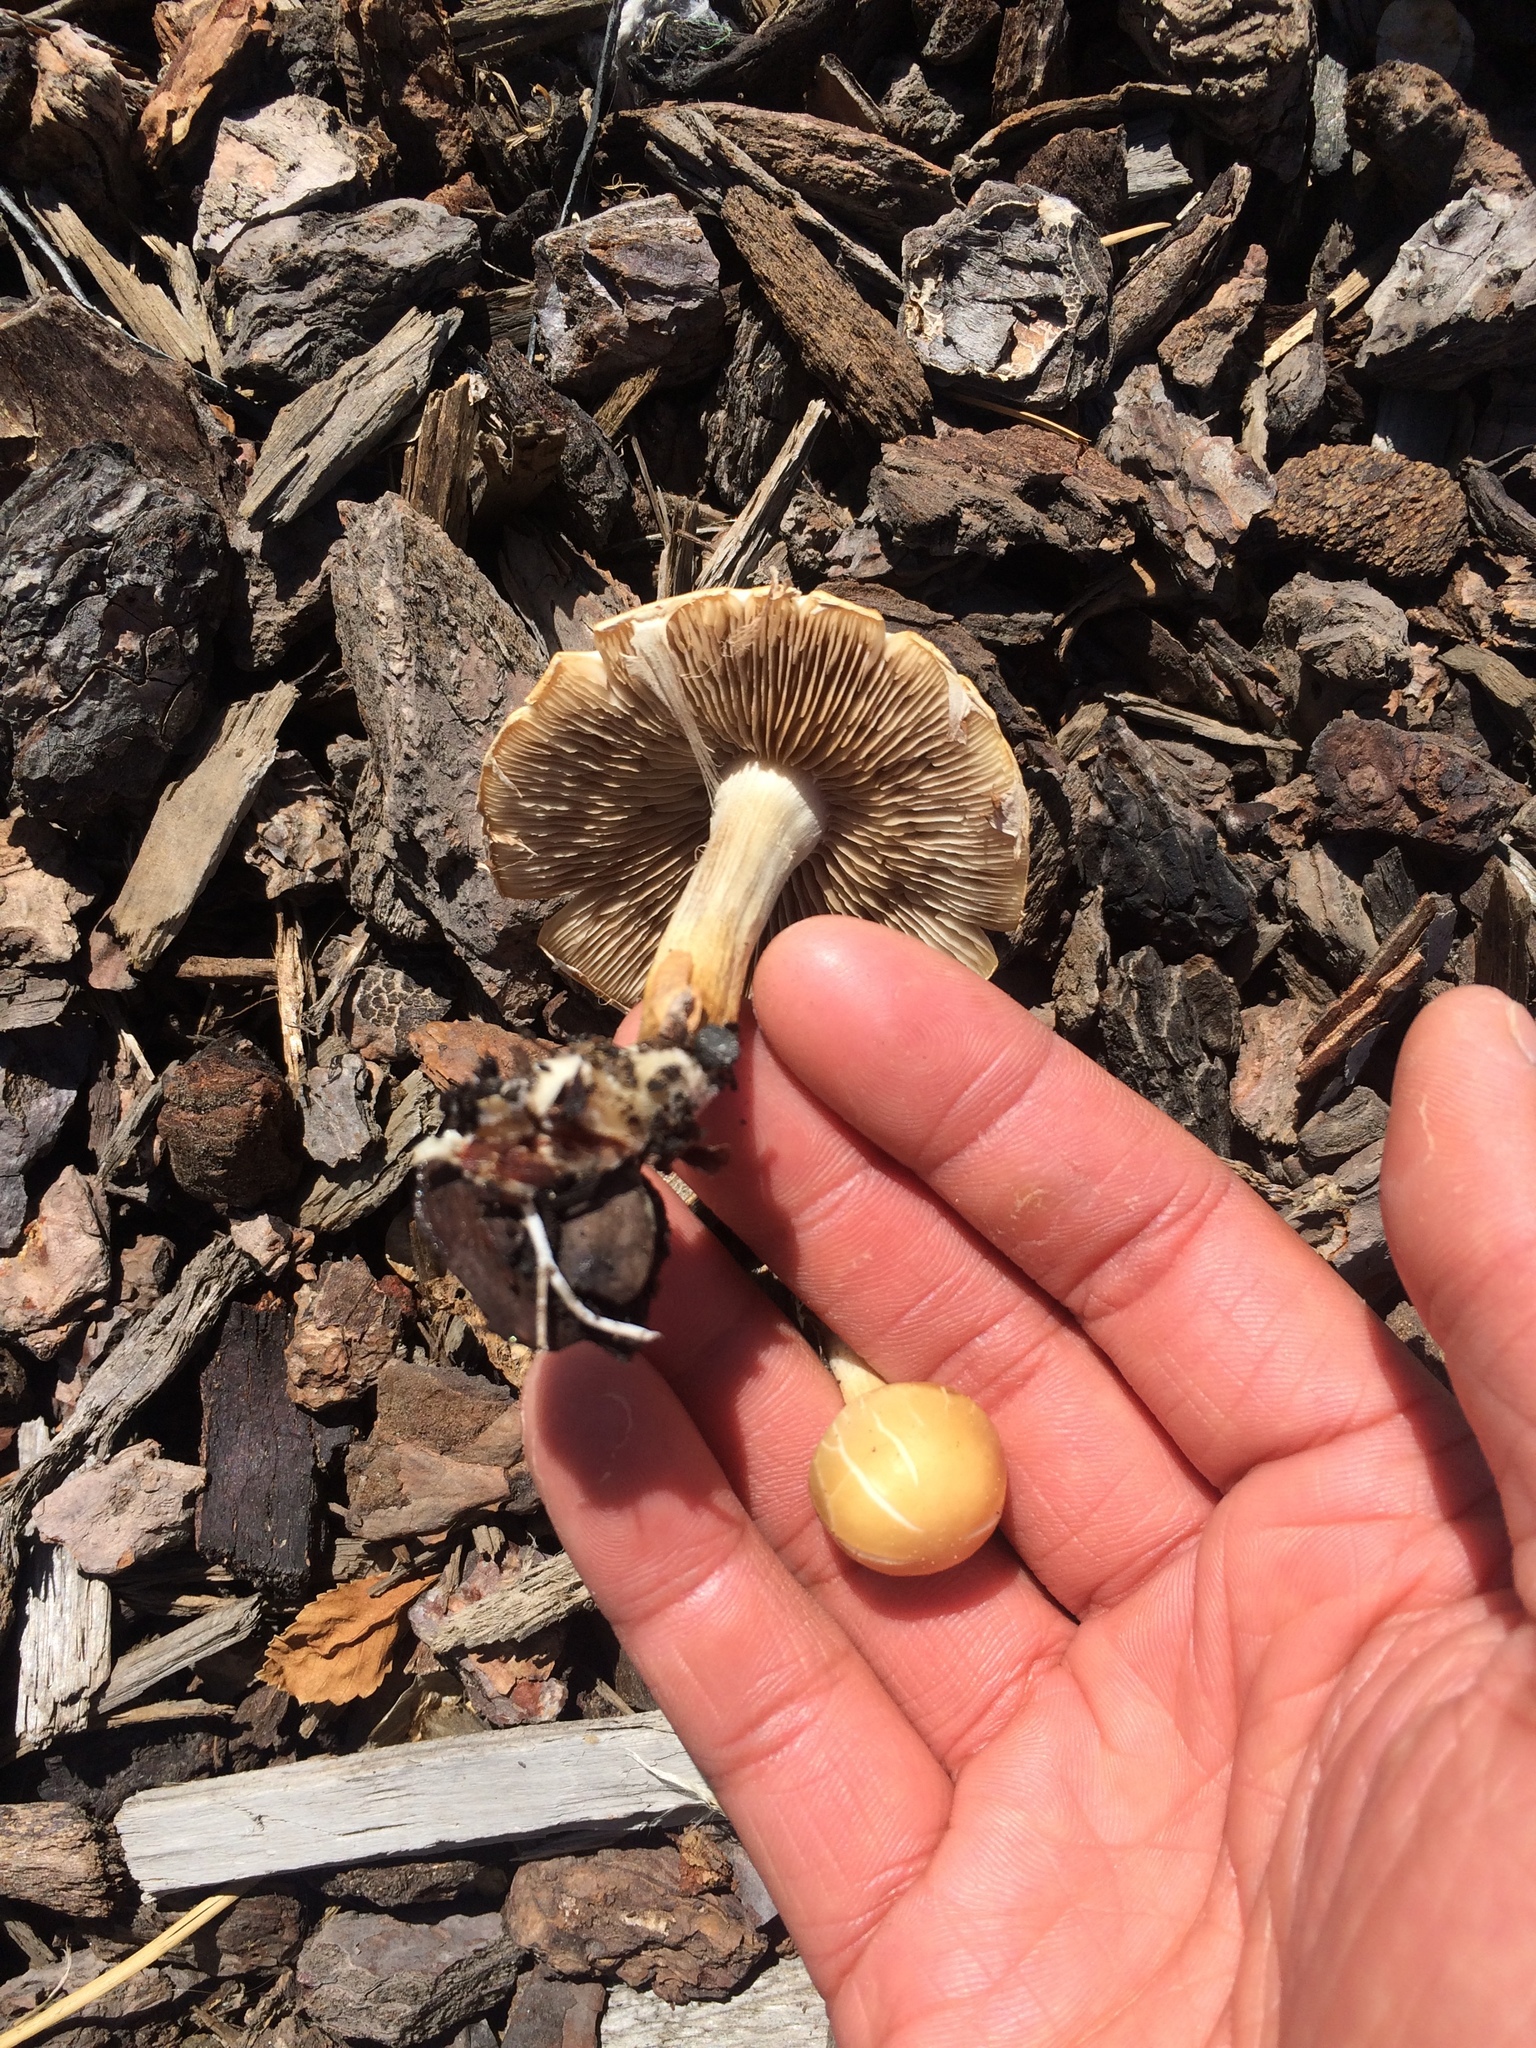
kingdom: Fungi
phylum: Basidiomycota
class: Agaricomycetes
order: Agaricales
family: Strophariaceae
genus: Agrocybe
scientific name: Agrocybe praecox
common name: Spring fieldcap
